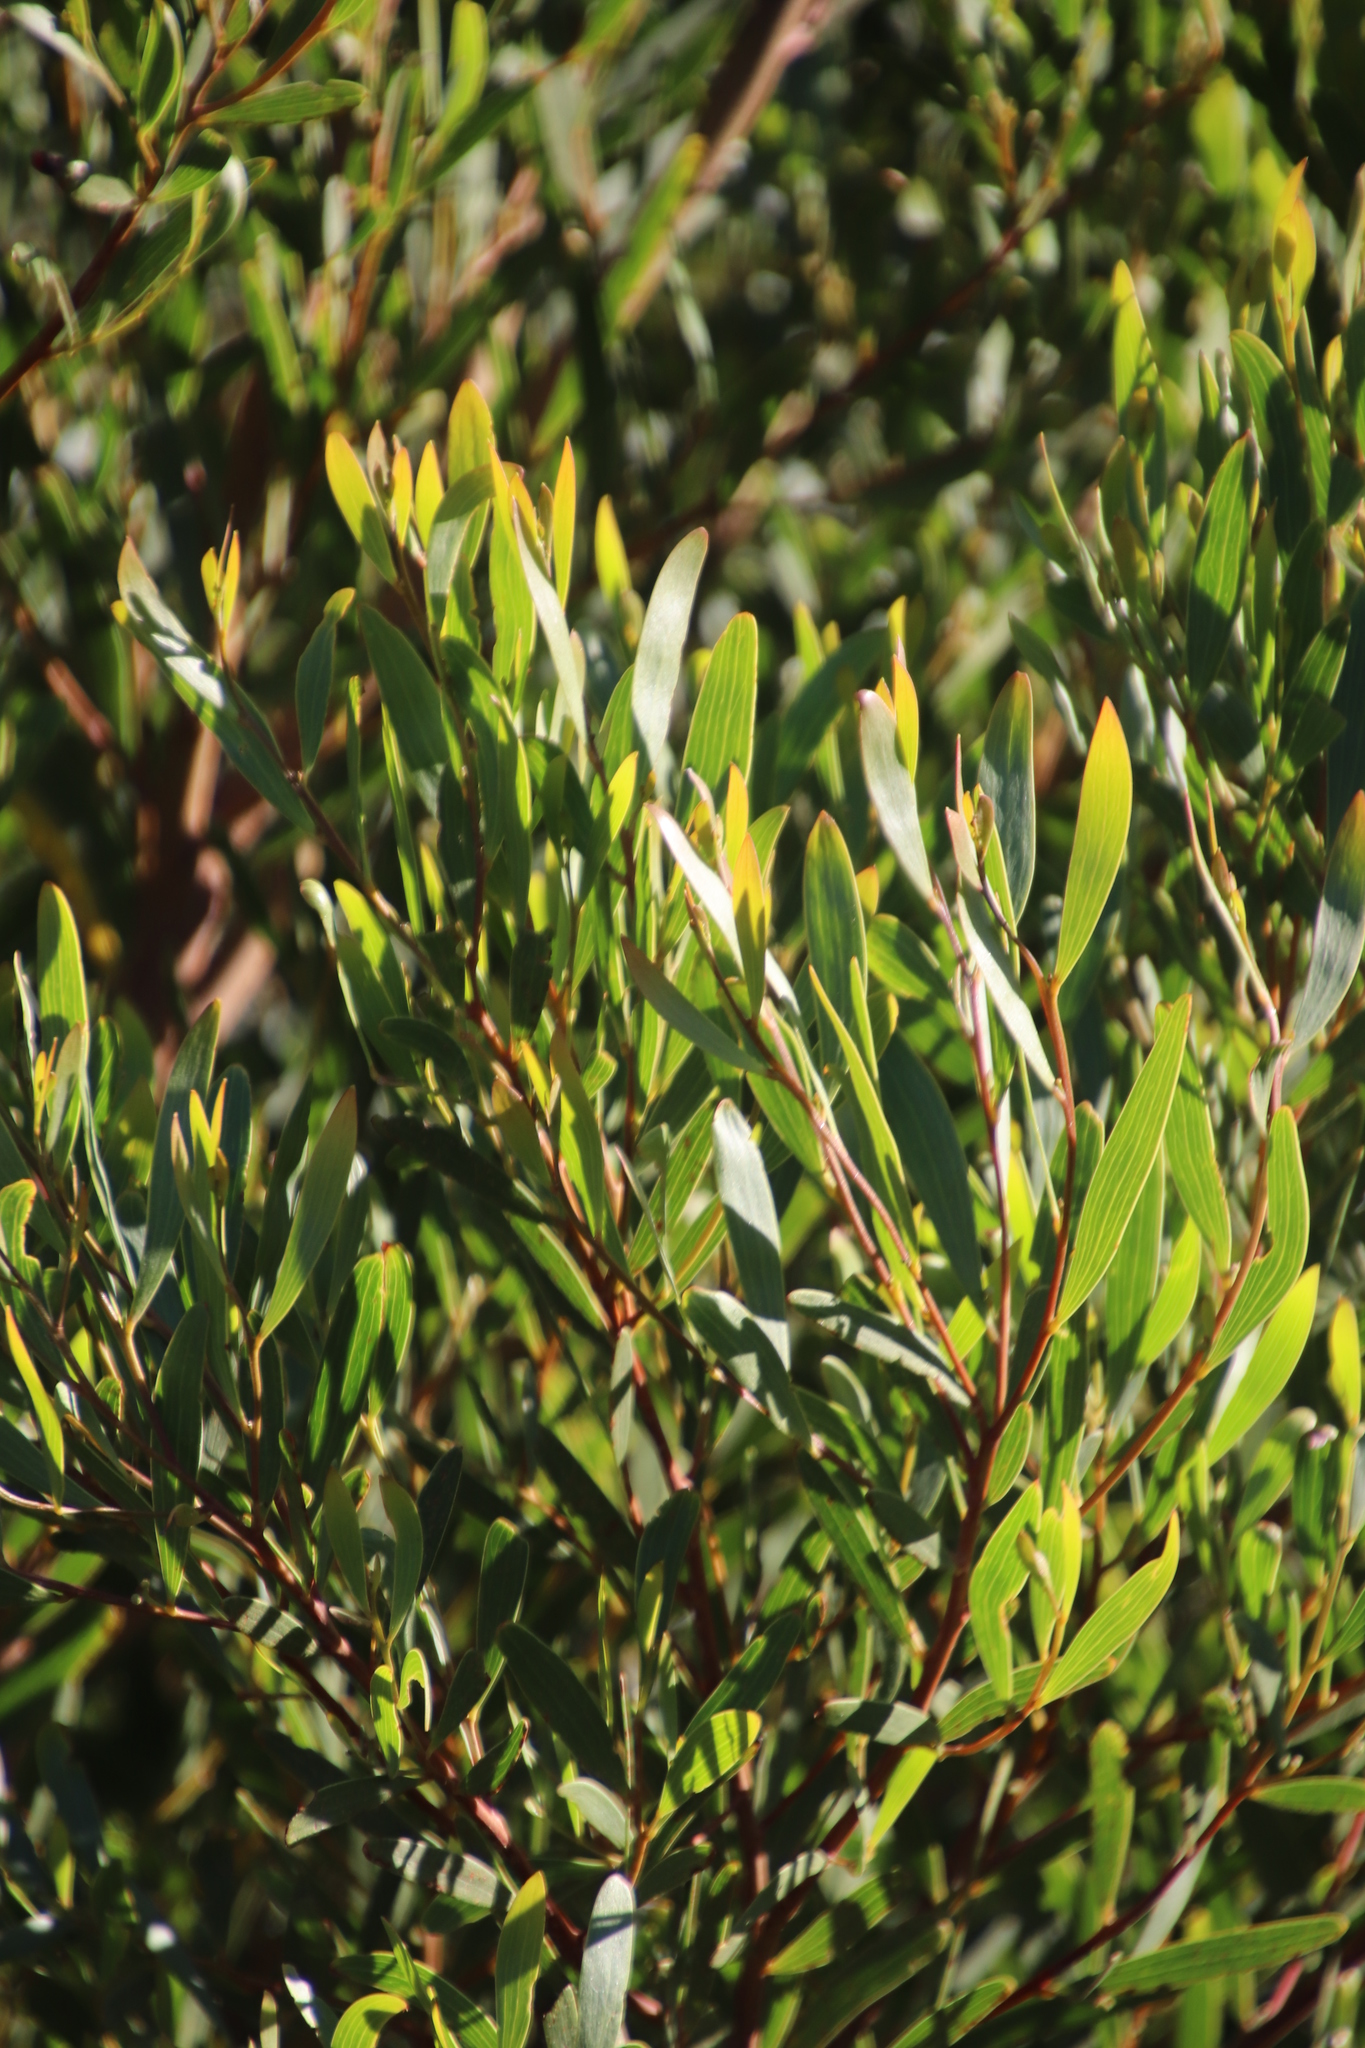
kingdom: Plantae
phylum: Tracheophyta
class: Magnoliopsida
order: Fabales
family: Fabaceae
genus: Acacia
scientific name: Acacia cyclops
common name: Coastal wattle
